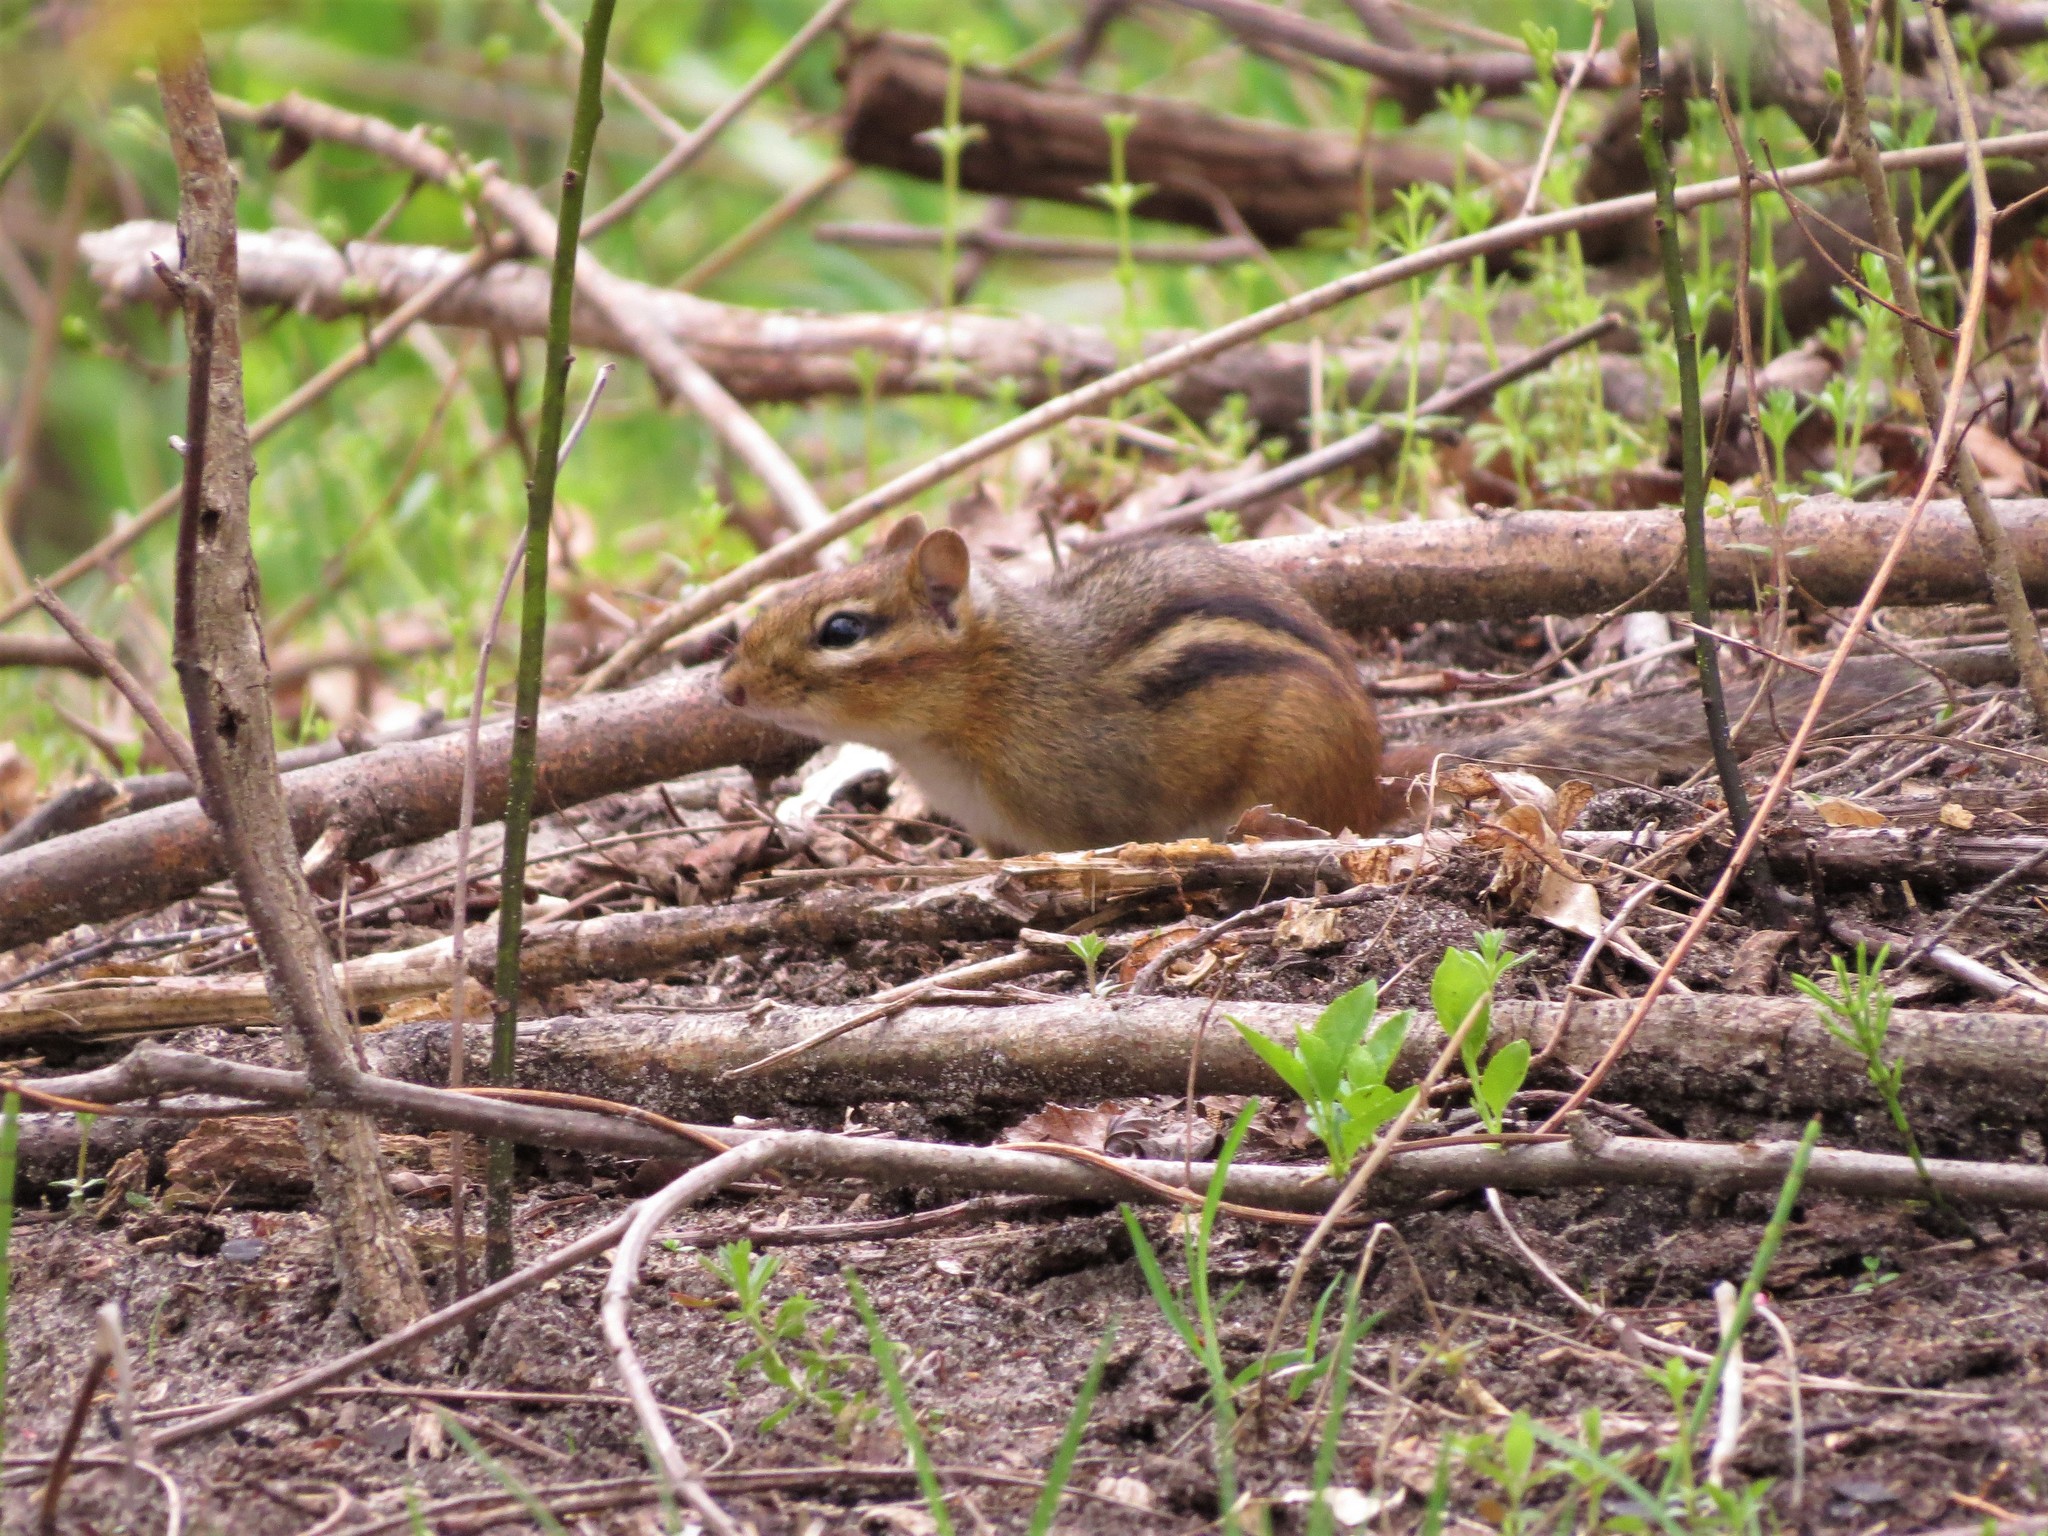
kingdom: Animalia
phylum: Chordata
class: Mammalia
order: Rodentia
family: Sciuridae
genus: Tamias
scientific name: Tamias striatus
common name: Eastern chipmunk
